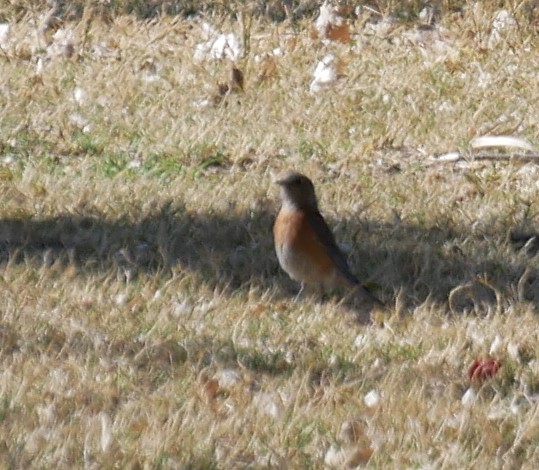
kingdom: Animalia
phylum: Chordata
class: Aves
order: Passeriformes
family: Turdidae
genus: Sialia
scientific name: Sialia mexicana
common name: Western bluebird
